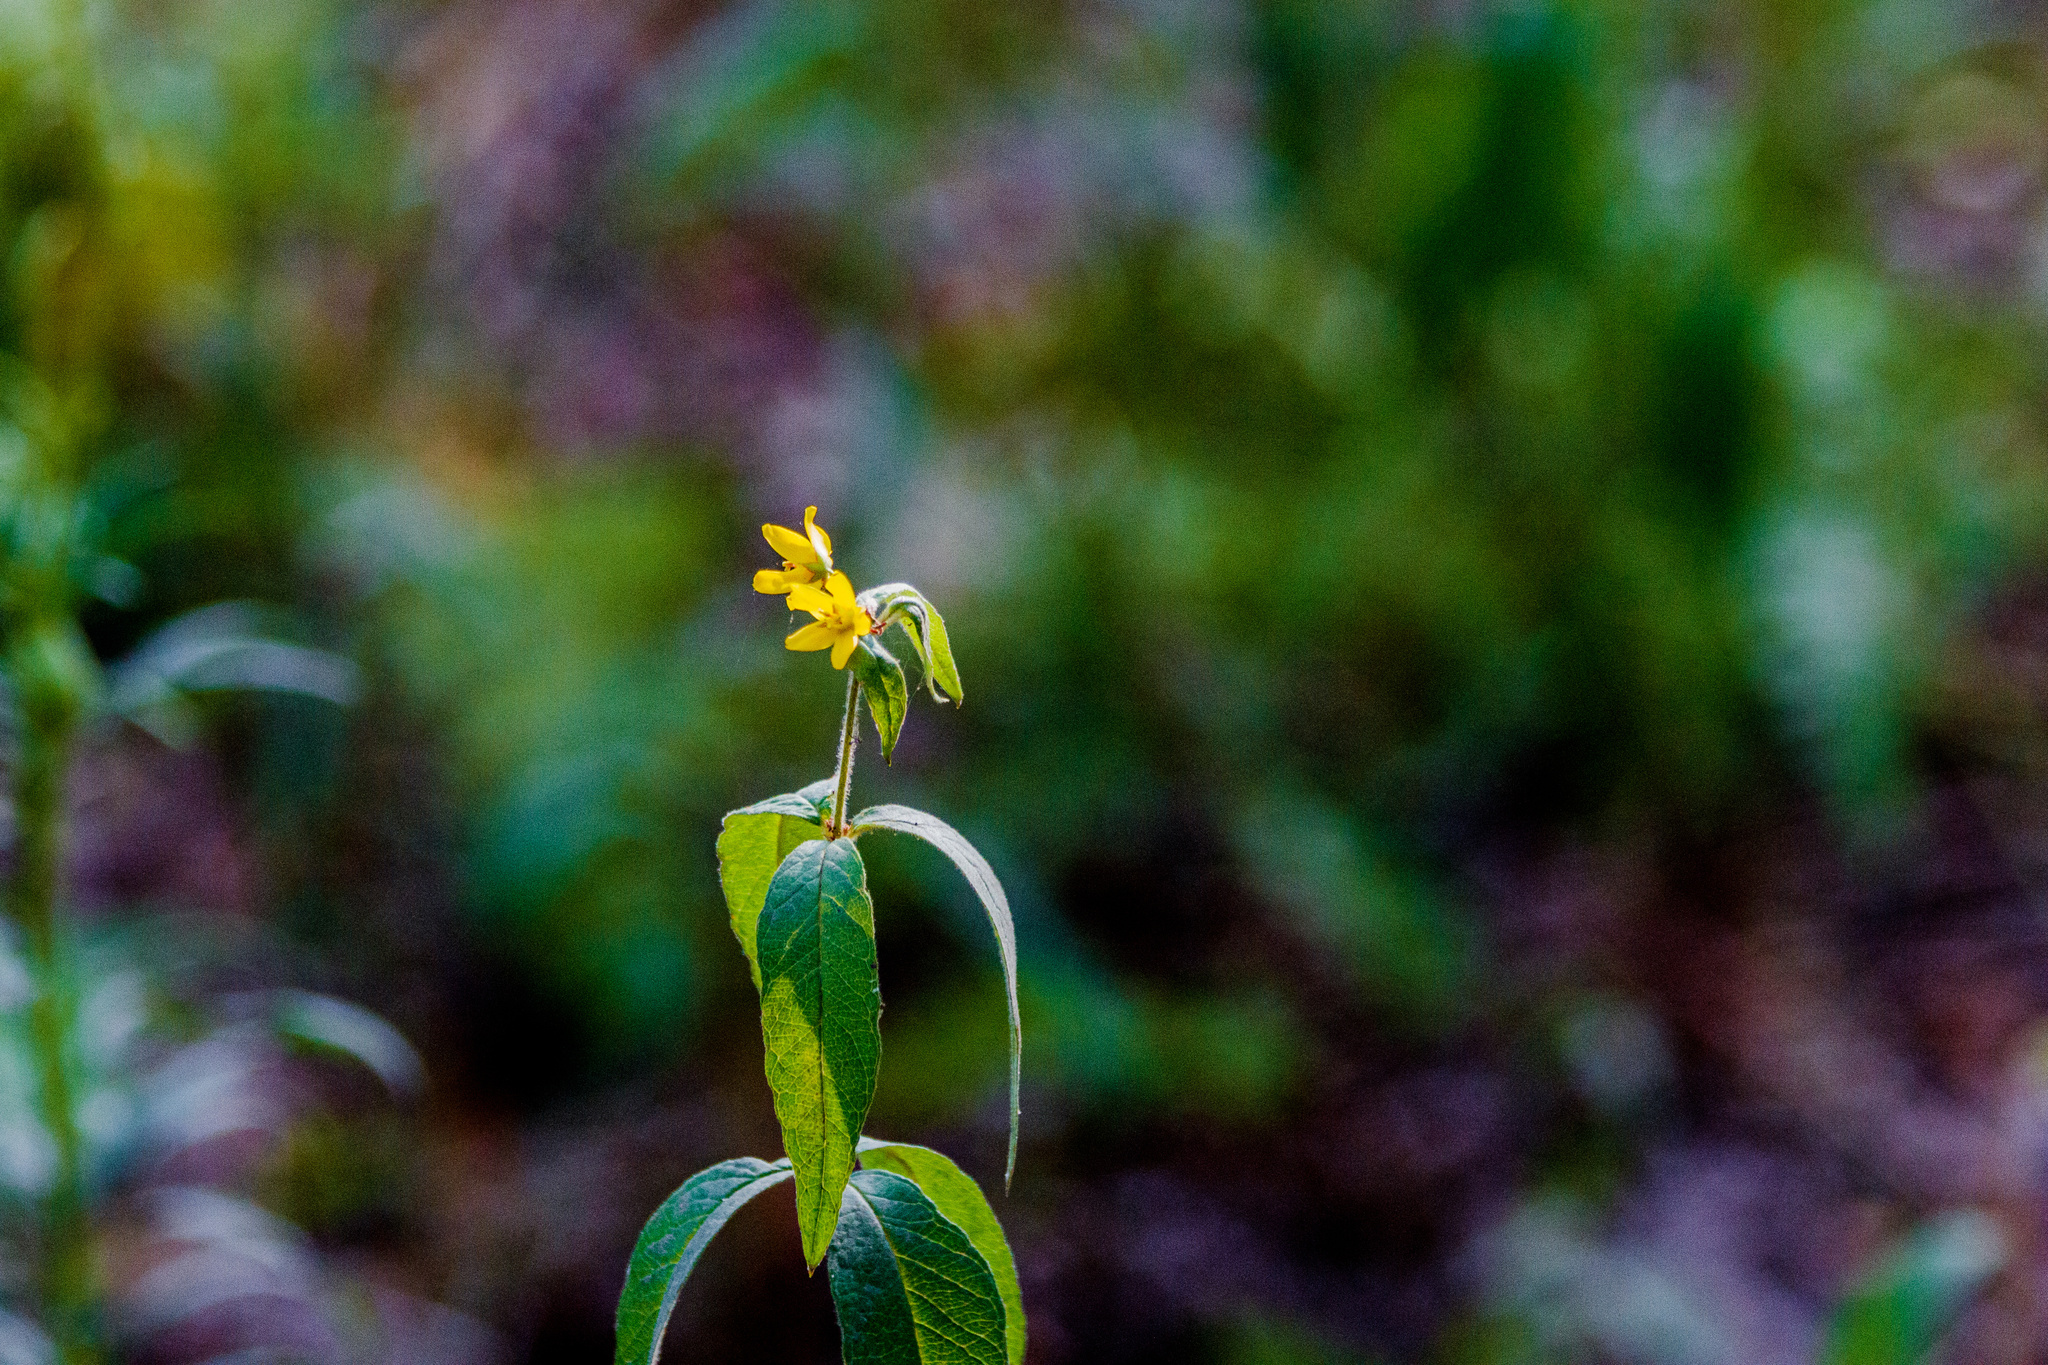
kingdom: Plantae
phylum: Tracheophyta
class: Magnoliopsida
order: Ericales
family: Primulaceae
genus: Lysimachia
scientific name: Lysimachia vulgaris
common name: Yellow loosestrife
